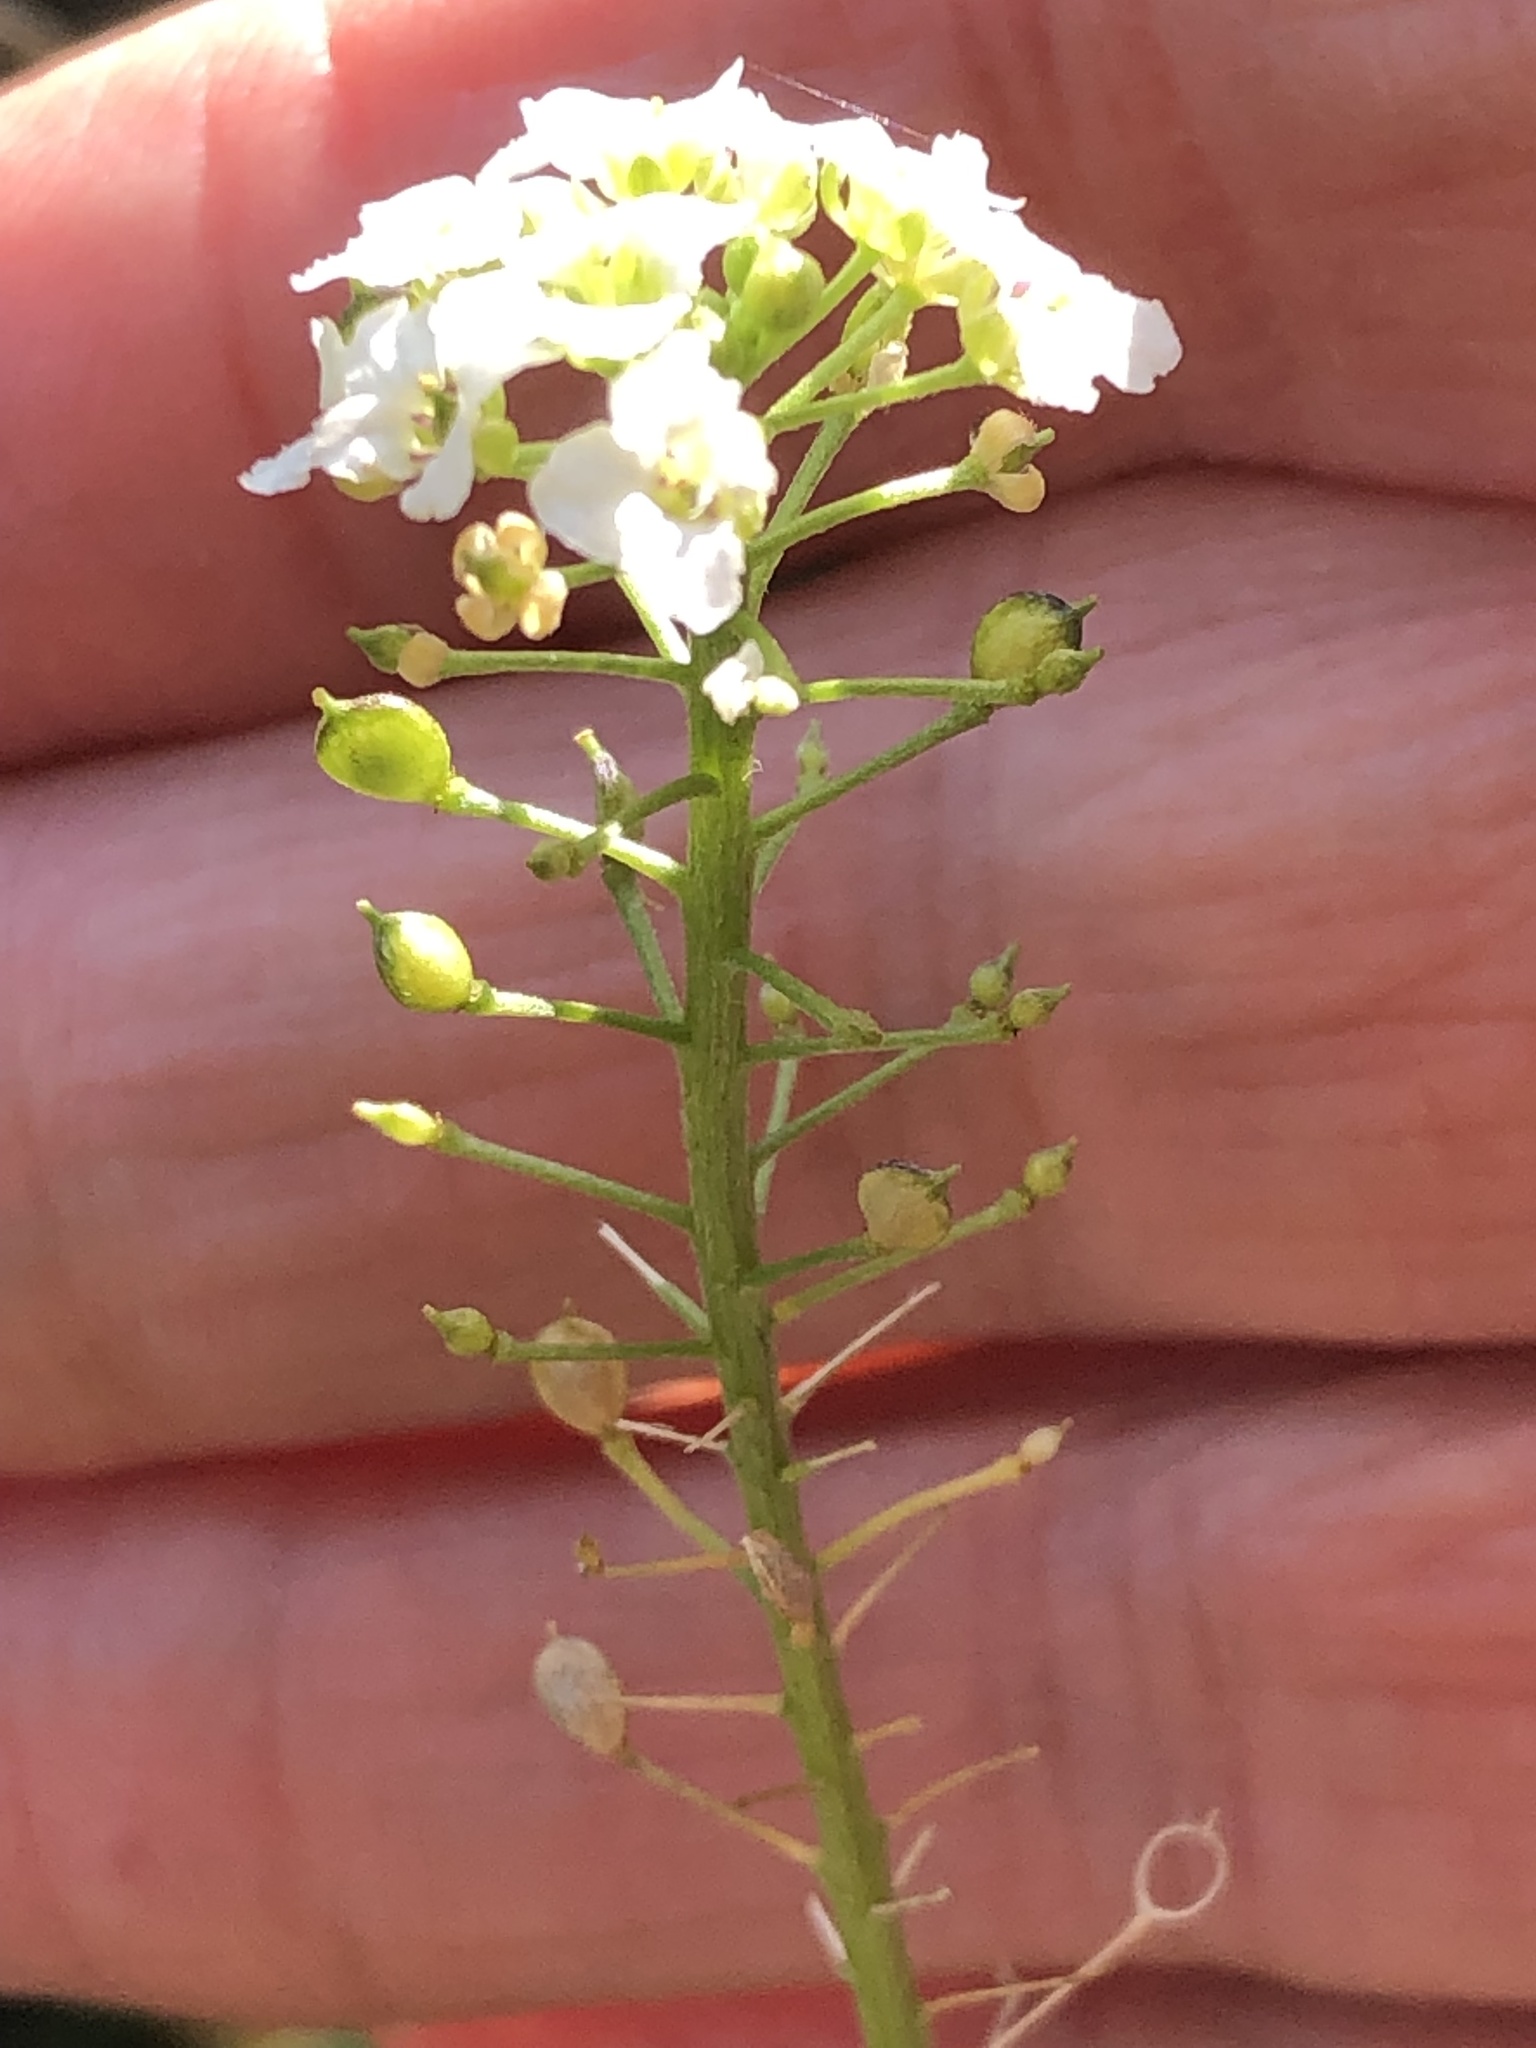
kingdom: Plantae
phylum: Tracheophyta
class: Magnoliopsida
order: Brassicales
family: Brassicaceae
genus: Lobularia
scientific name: Lobularia maritima
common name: Sweet alison
